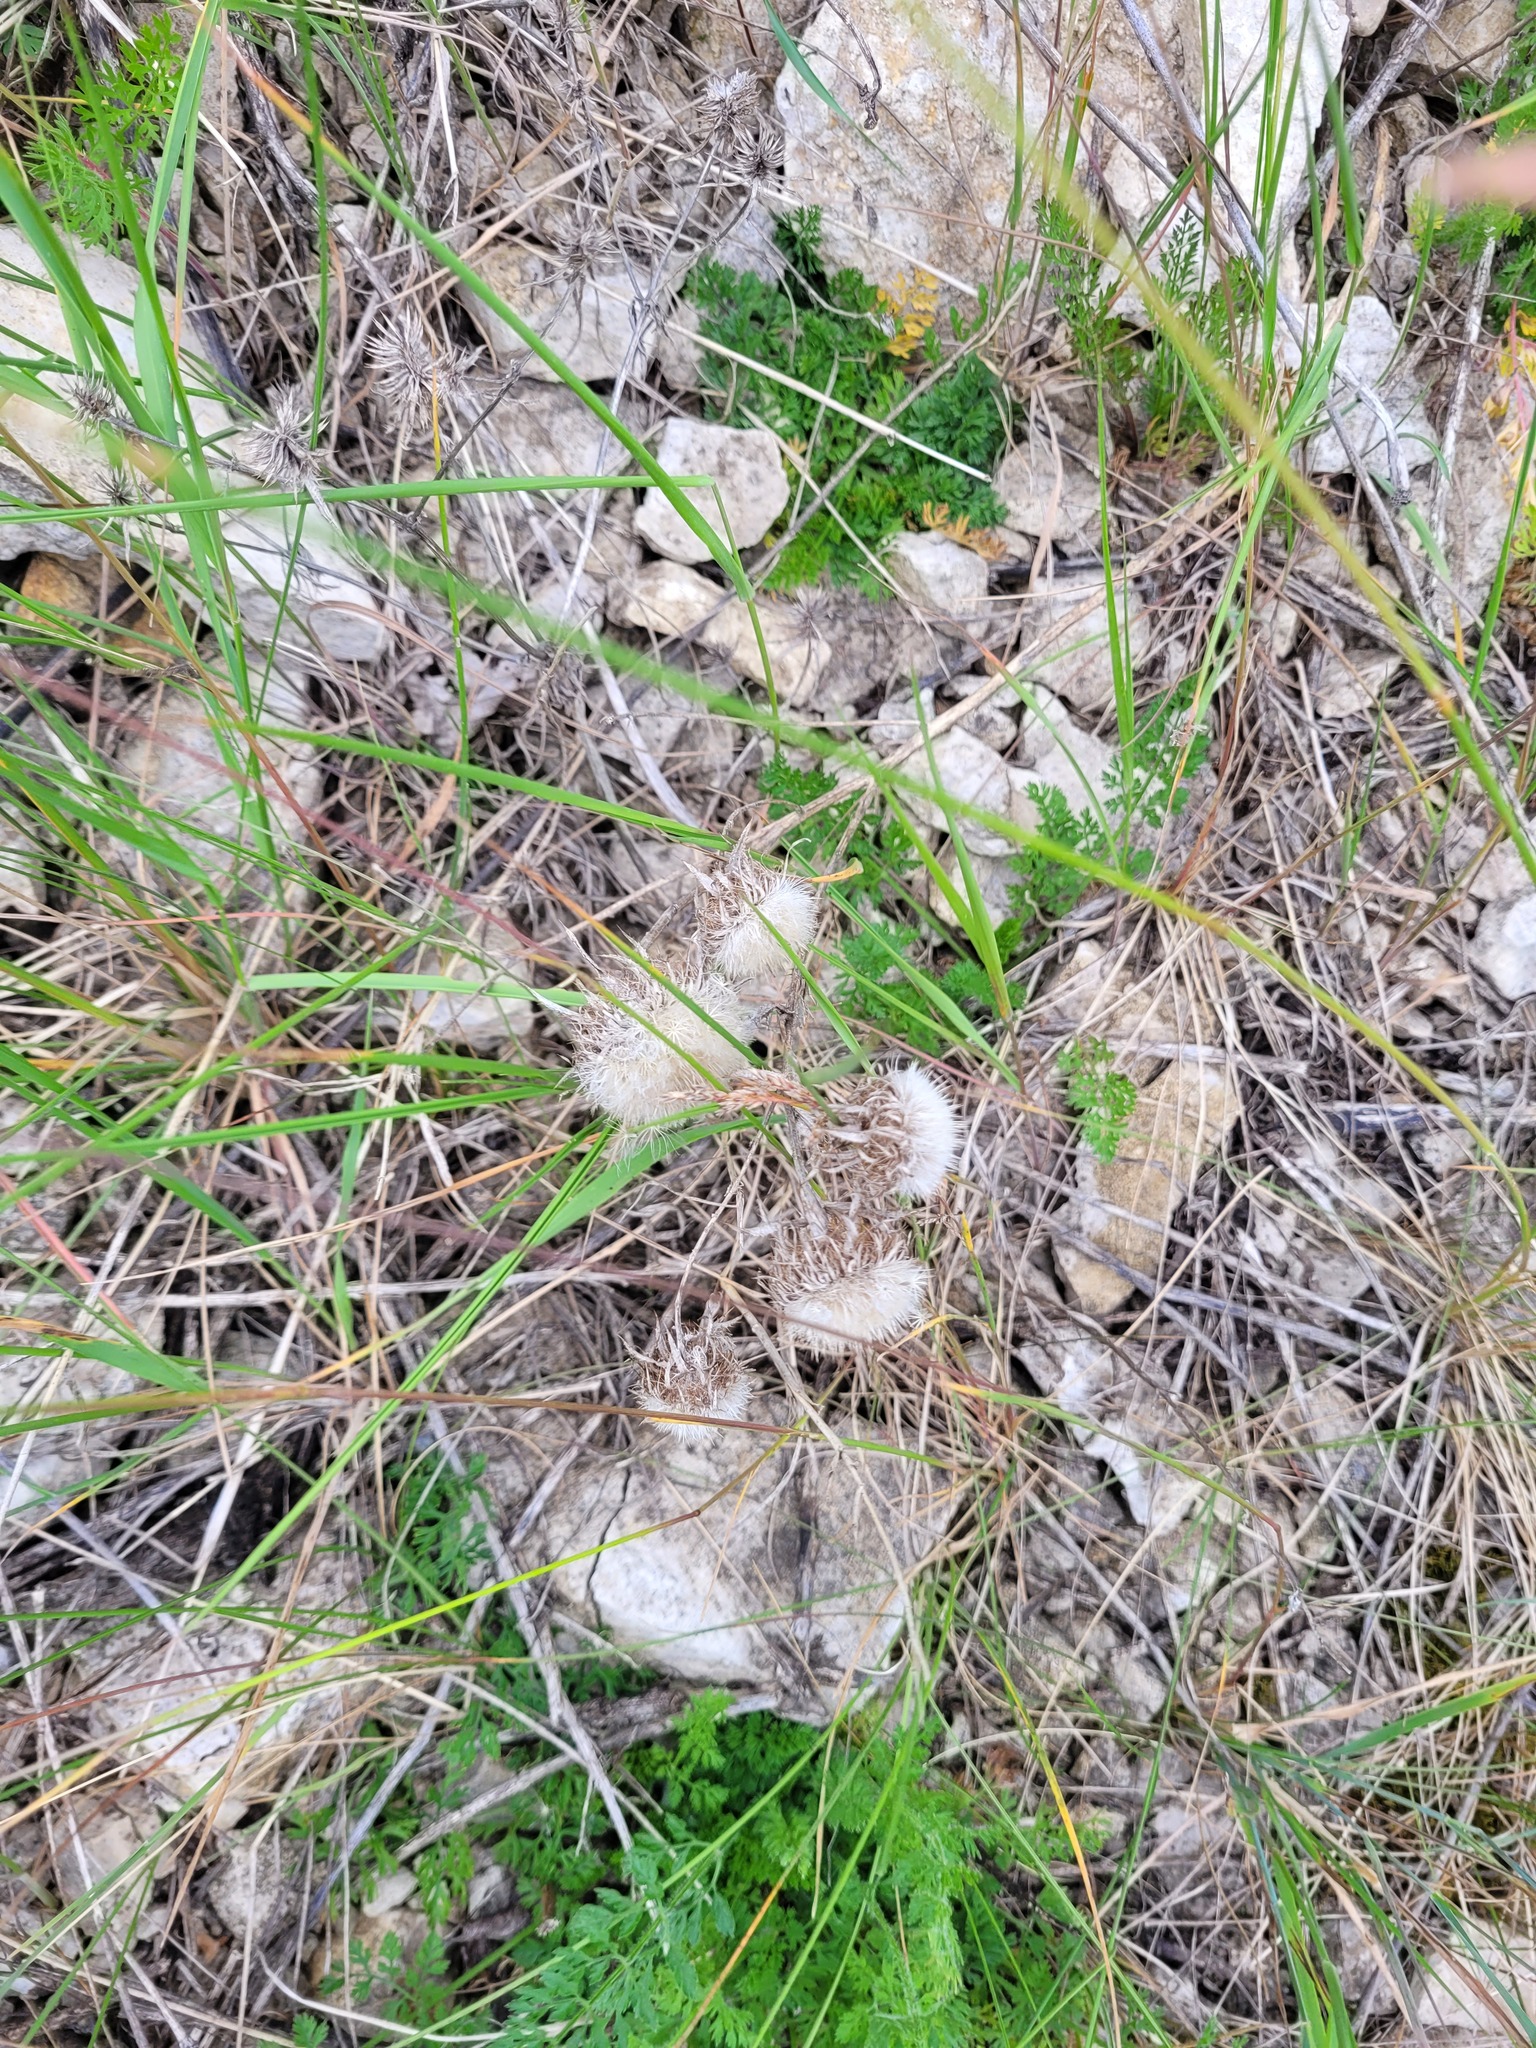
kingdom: Plantae
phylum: Tracheophyta
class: Magnoliopsida
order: Asterales
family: Asteraceae
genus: Carlina
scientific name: Carlina biebersteinii
